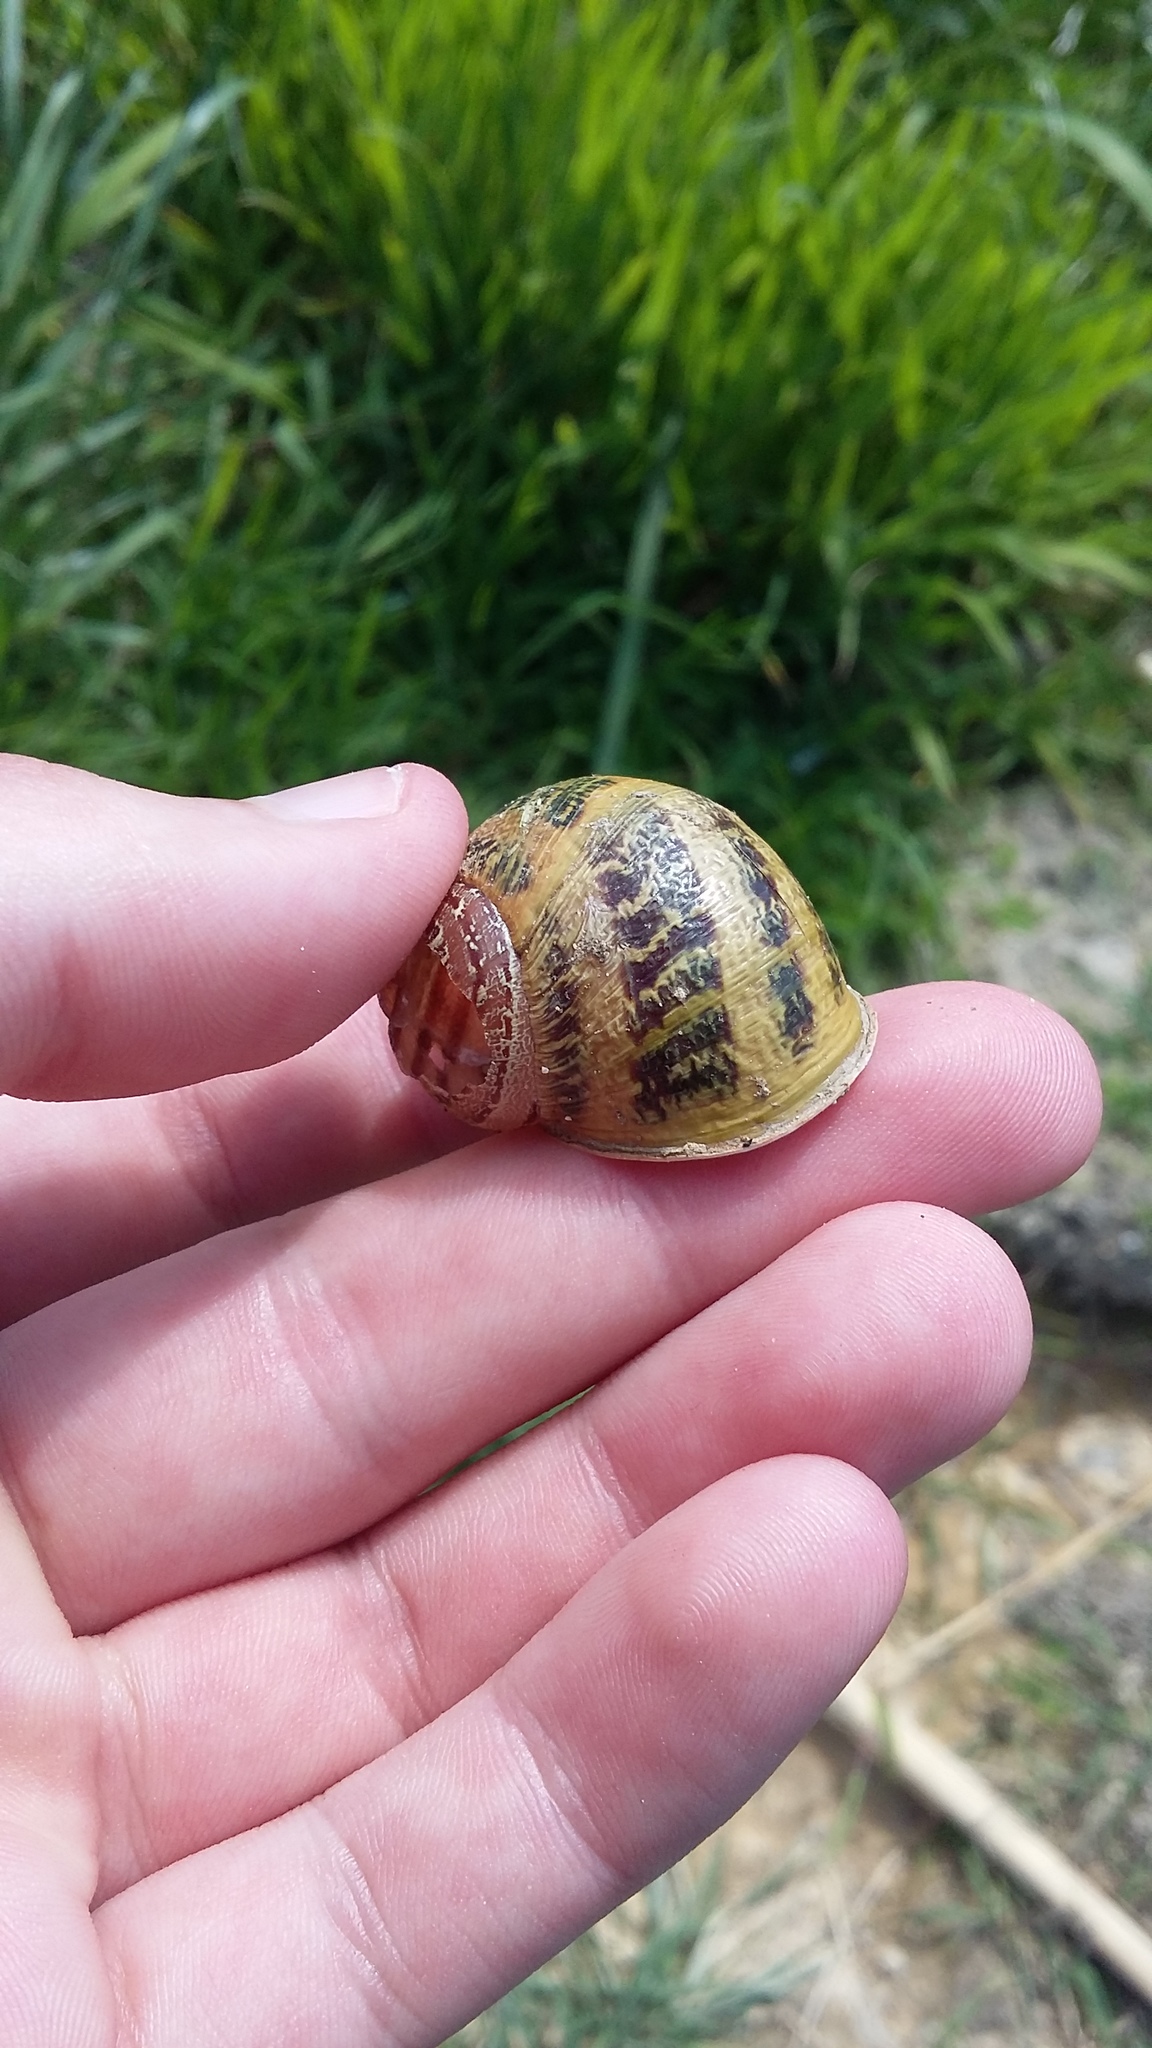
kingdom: Animalia
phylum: Mollusca
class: Gastropoda
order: Stylommatophora
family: Helicidae
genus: Cornu
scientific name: Cornu aspersum
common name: Brown garden snail
